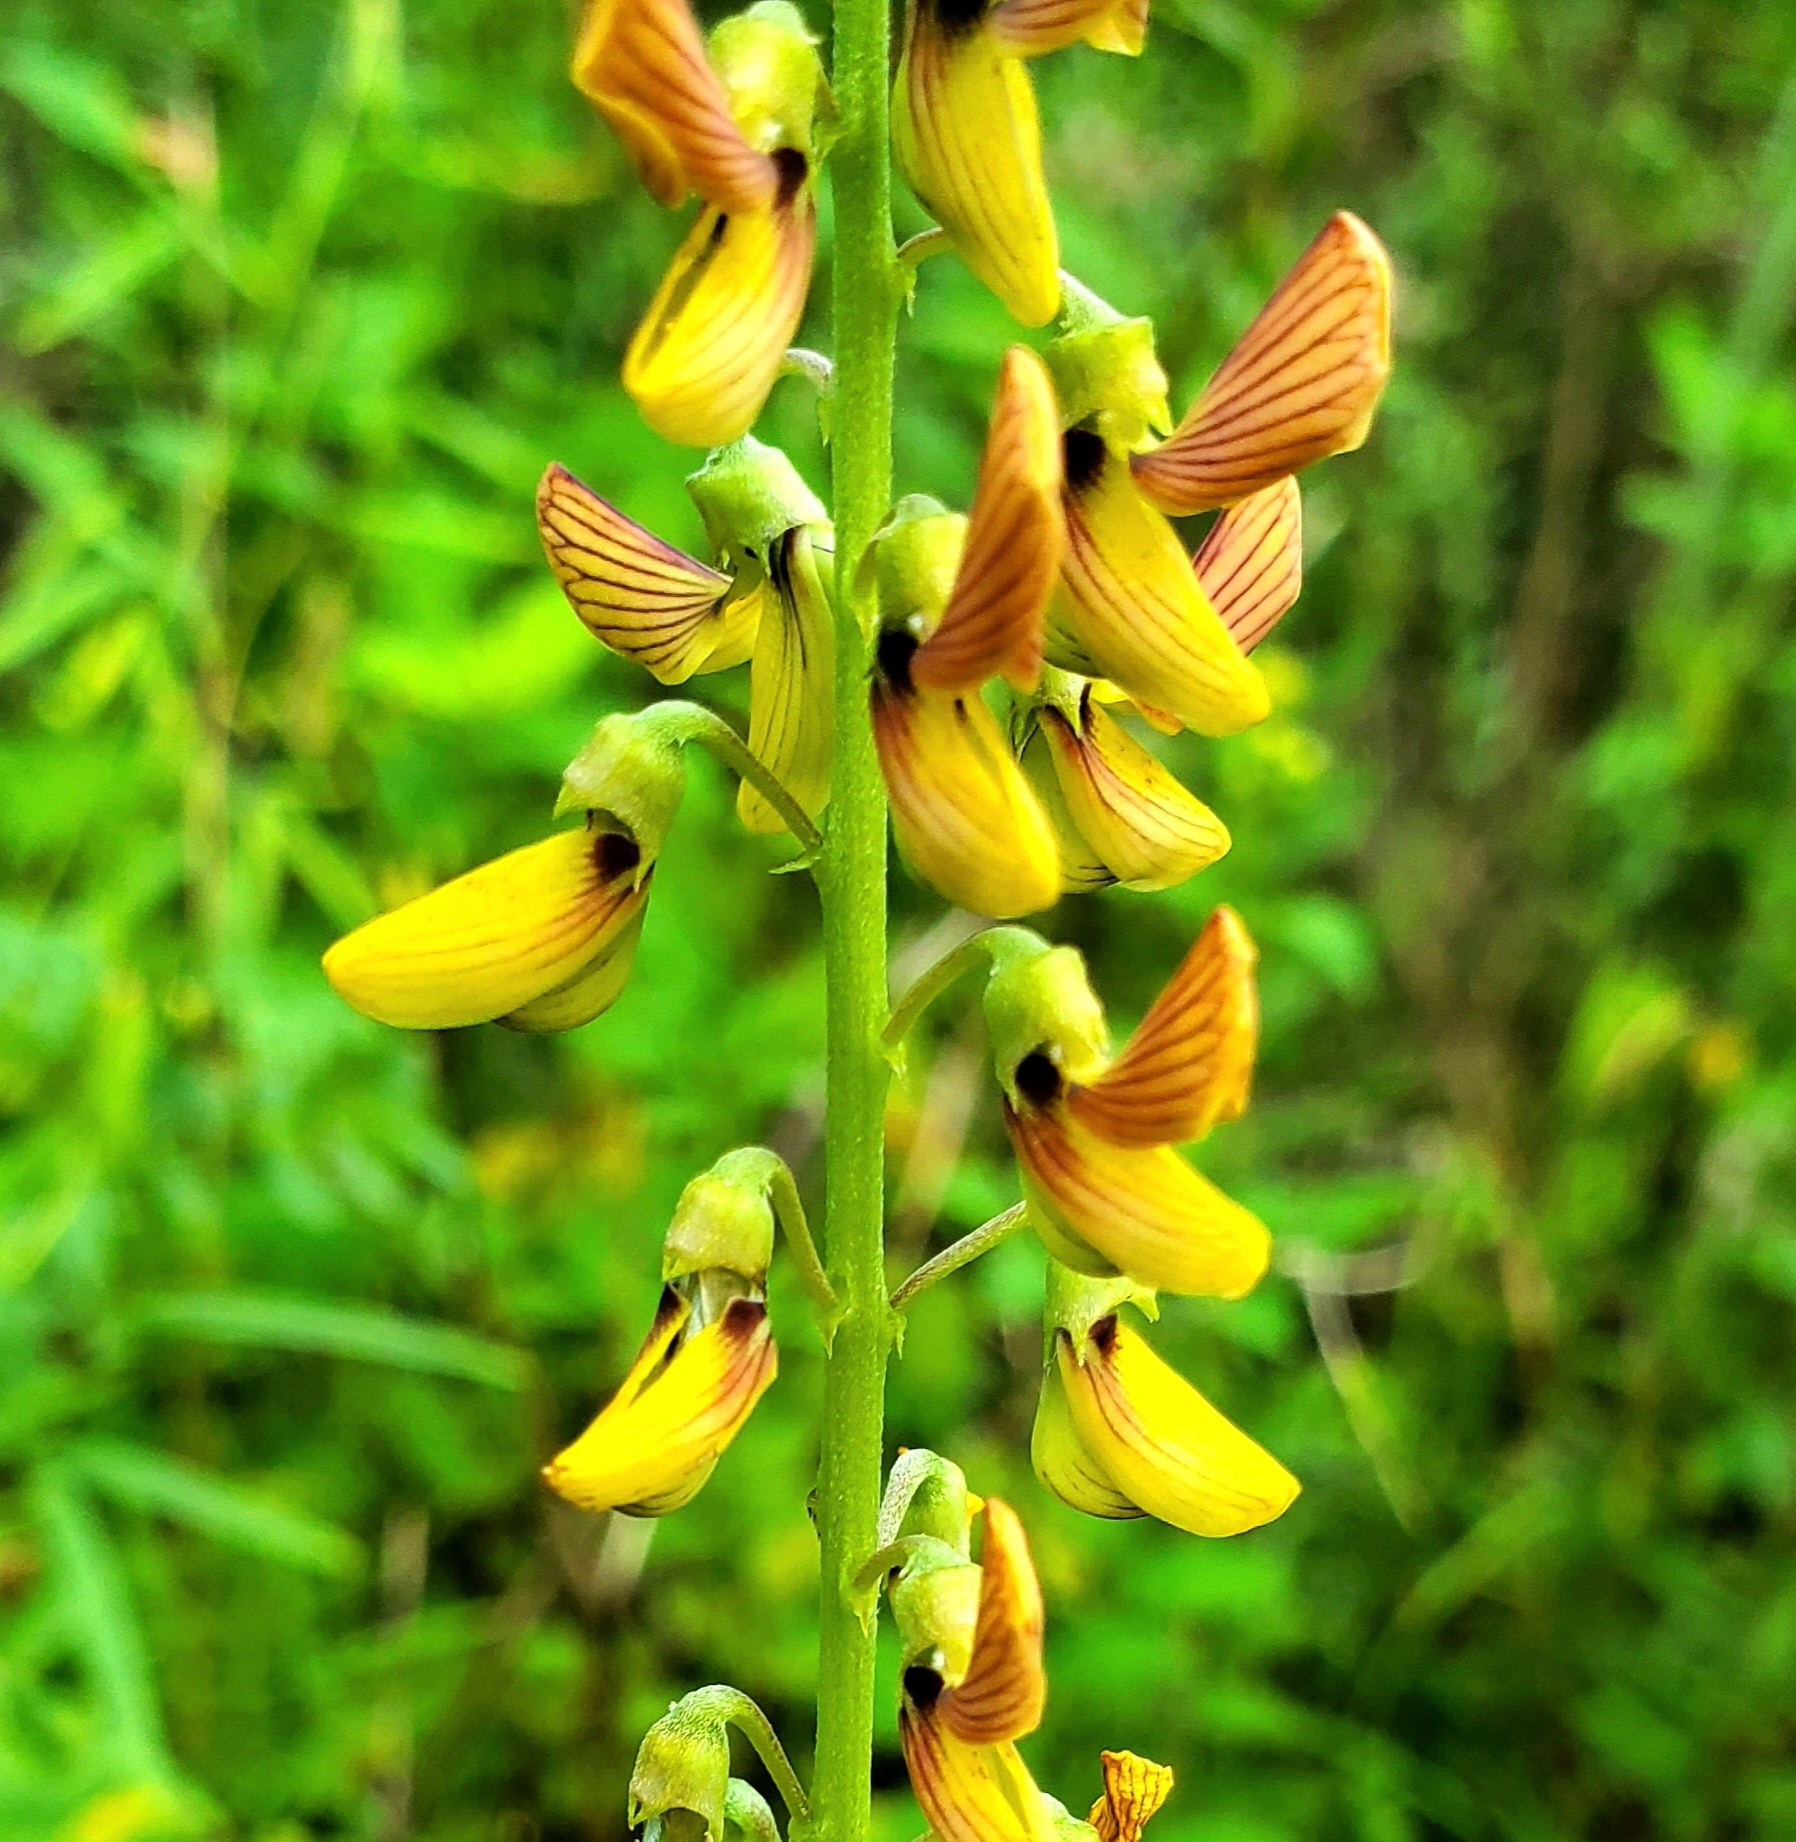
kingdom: Plantae
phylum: Tracheophyta
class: Magnoliopsida
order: Fabales
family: Fabaceae
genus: Crotalaria
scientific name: Crotalaria lanceolata
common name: Lanceleaf rattlebox
